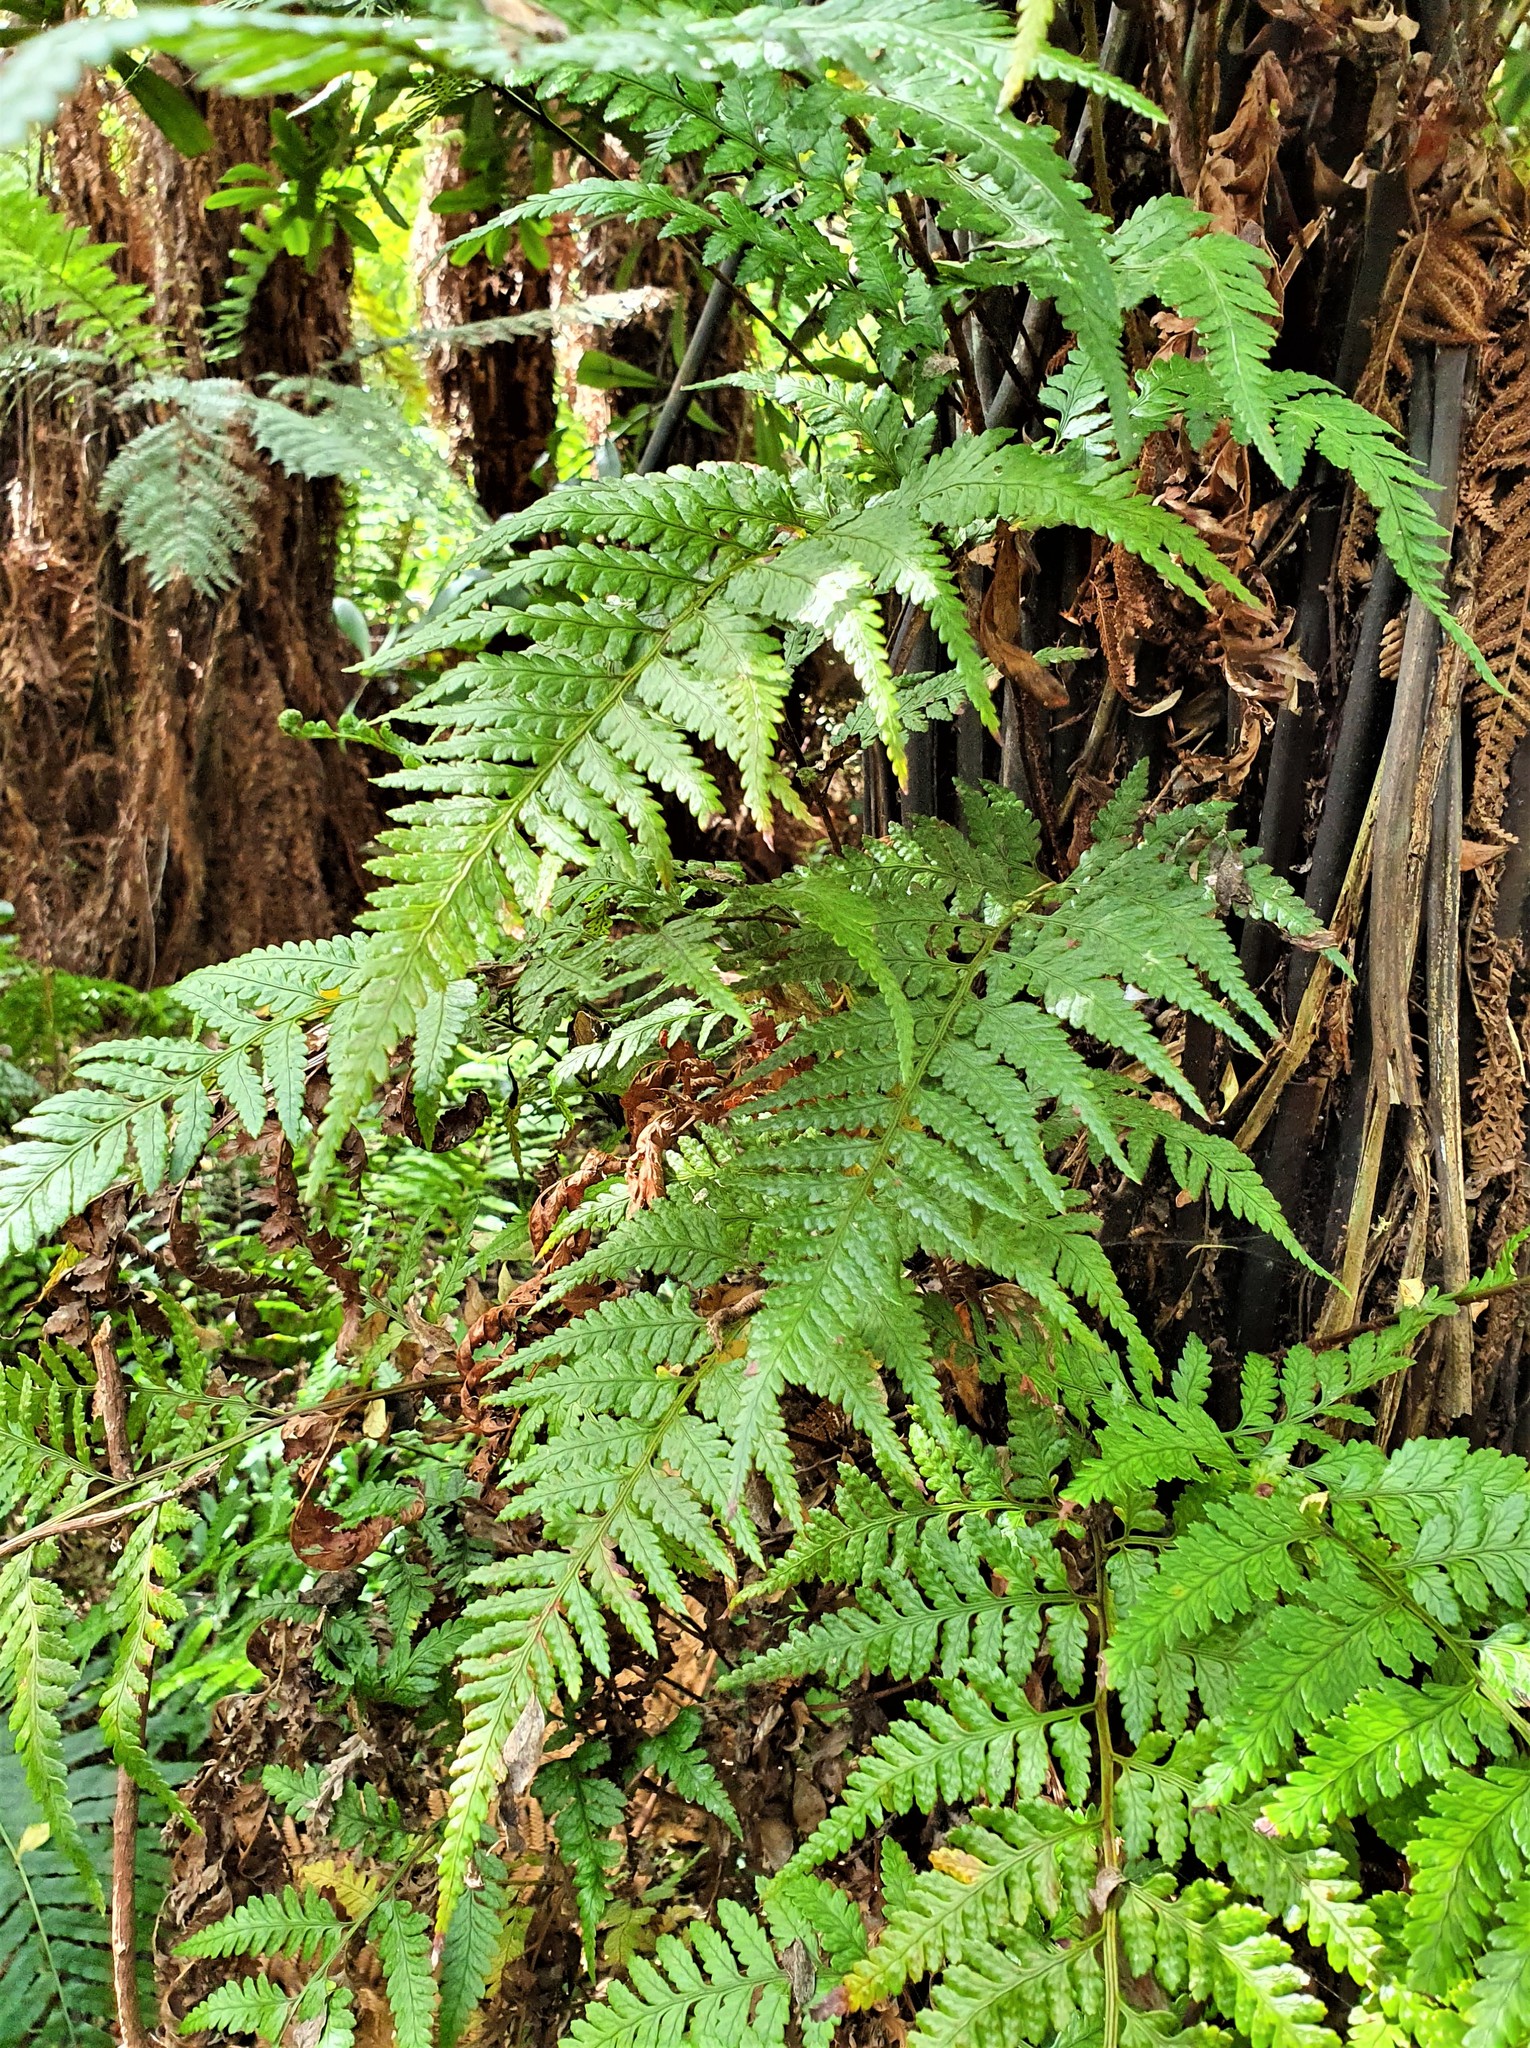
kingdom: Plantae
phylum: Tracheophyta
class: Polypodiopsida
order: Polypodiales
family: Dryopteridaceae
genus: Rumohra
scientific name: Rumohra adiantiformis
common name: Leather fern
